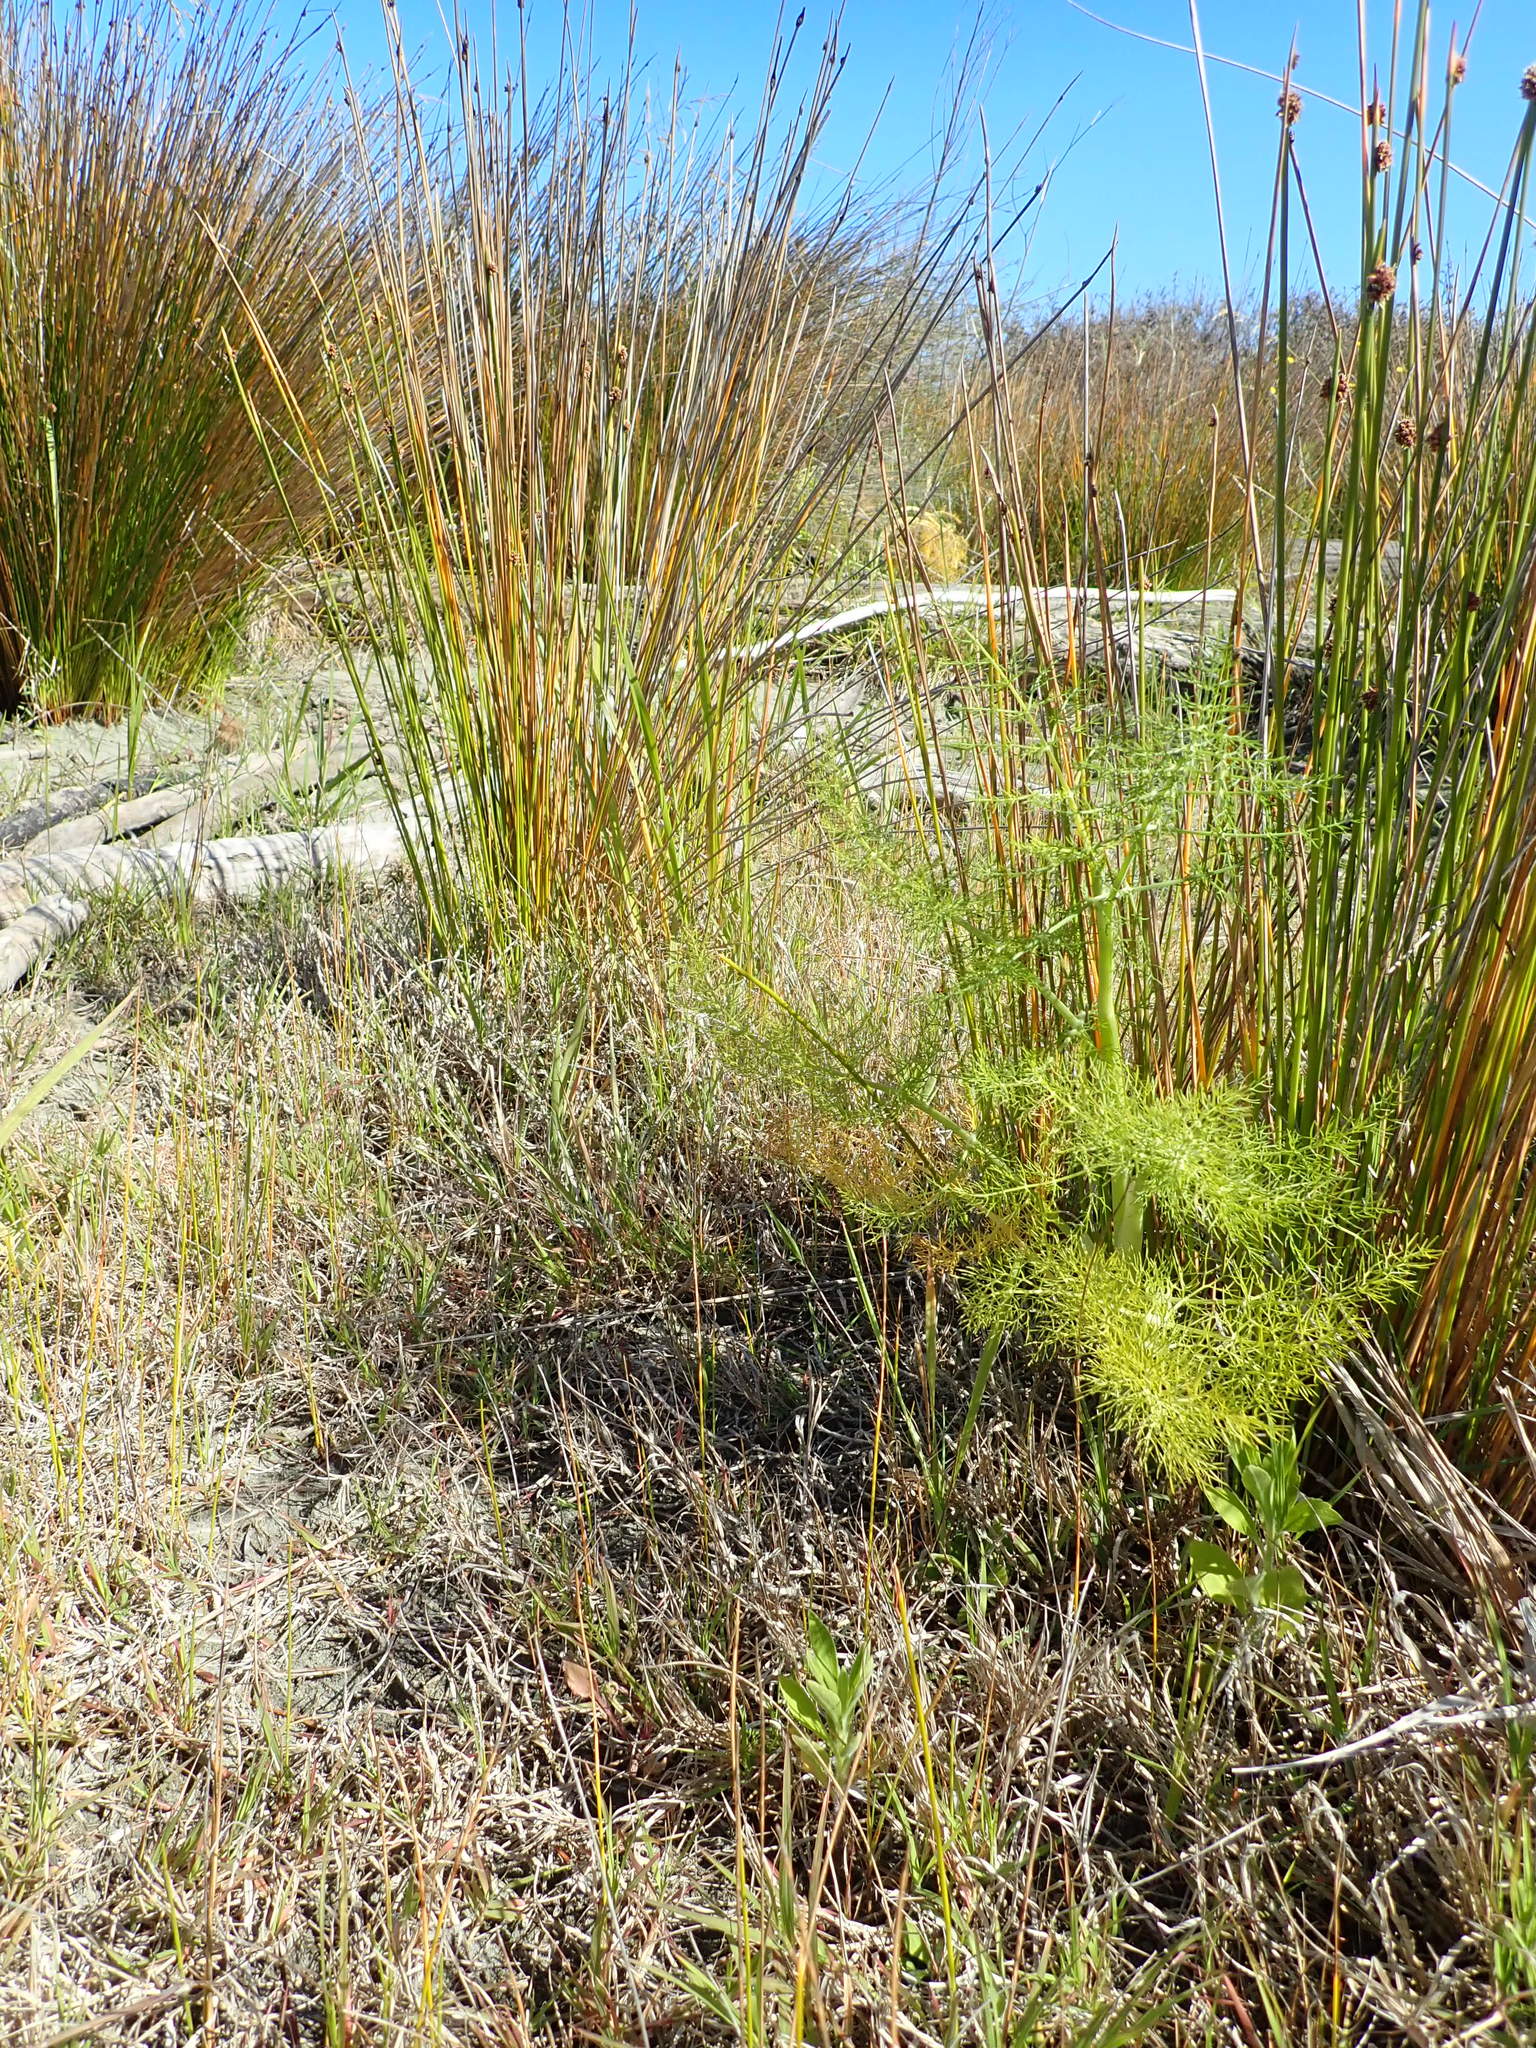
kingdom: Plantae
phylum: Tracheophyta
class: Magnoliopsida
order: Apiales
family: Apiaceae
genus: Foeniculum
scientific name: Foeniculum vulgare
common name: Fennel
